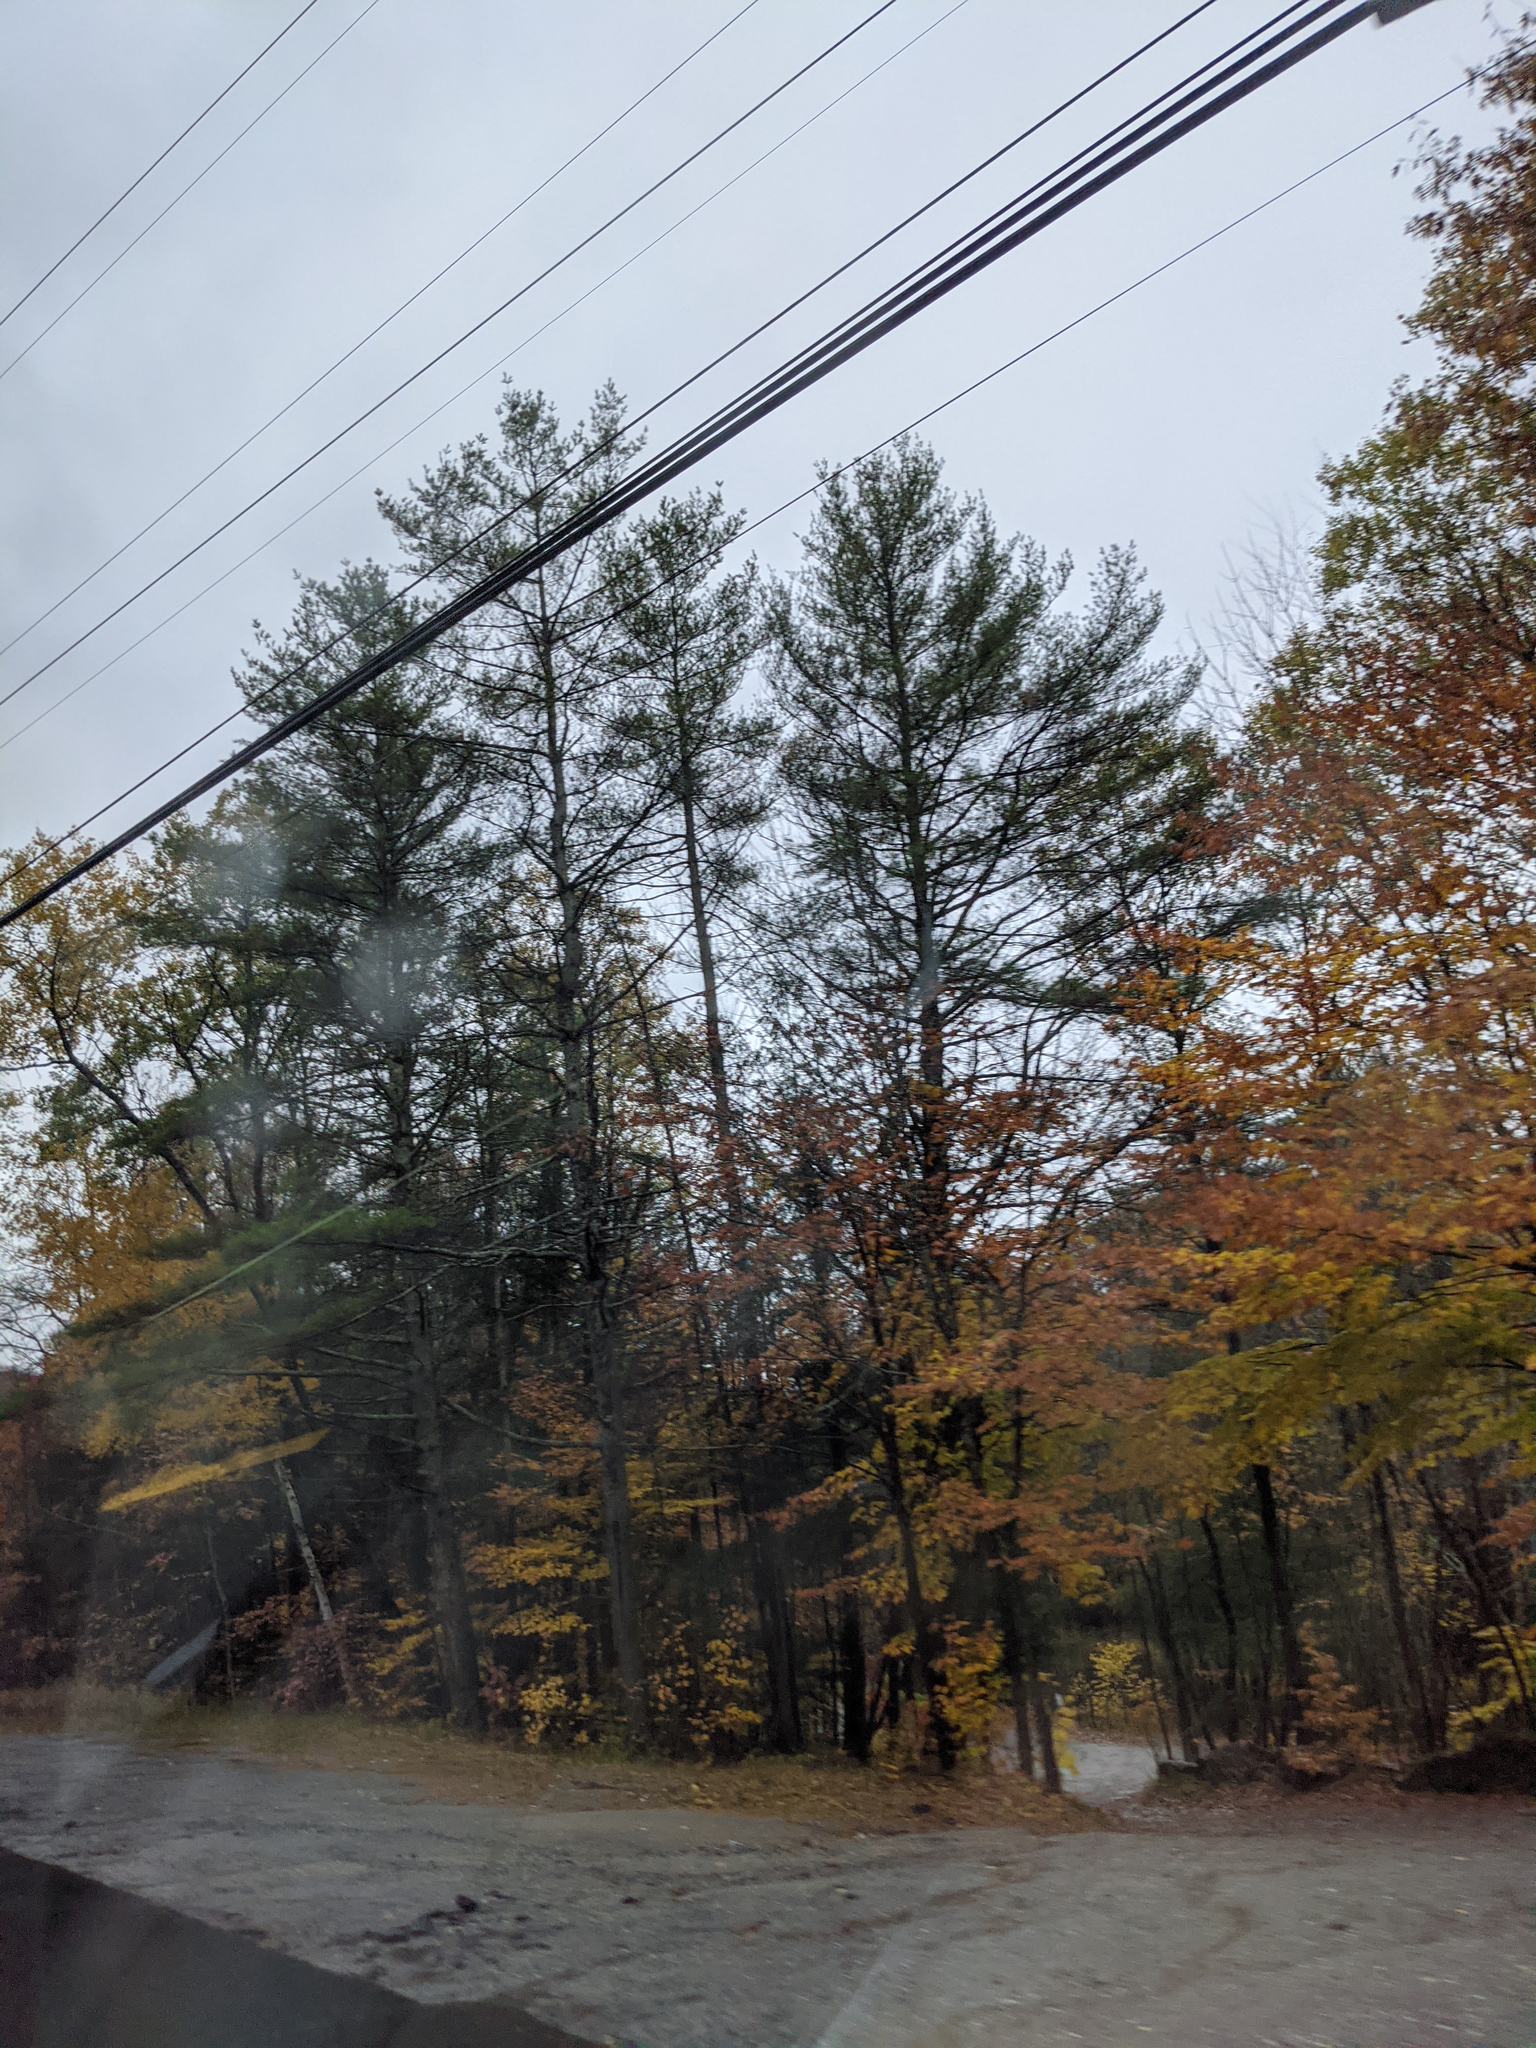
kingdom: Plantae
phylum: Tracheophyta
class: Pinopsida
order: Pinales
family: Pinaceae
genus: Pinus
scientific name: Pinus strobus
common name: Weymouth pine
